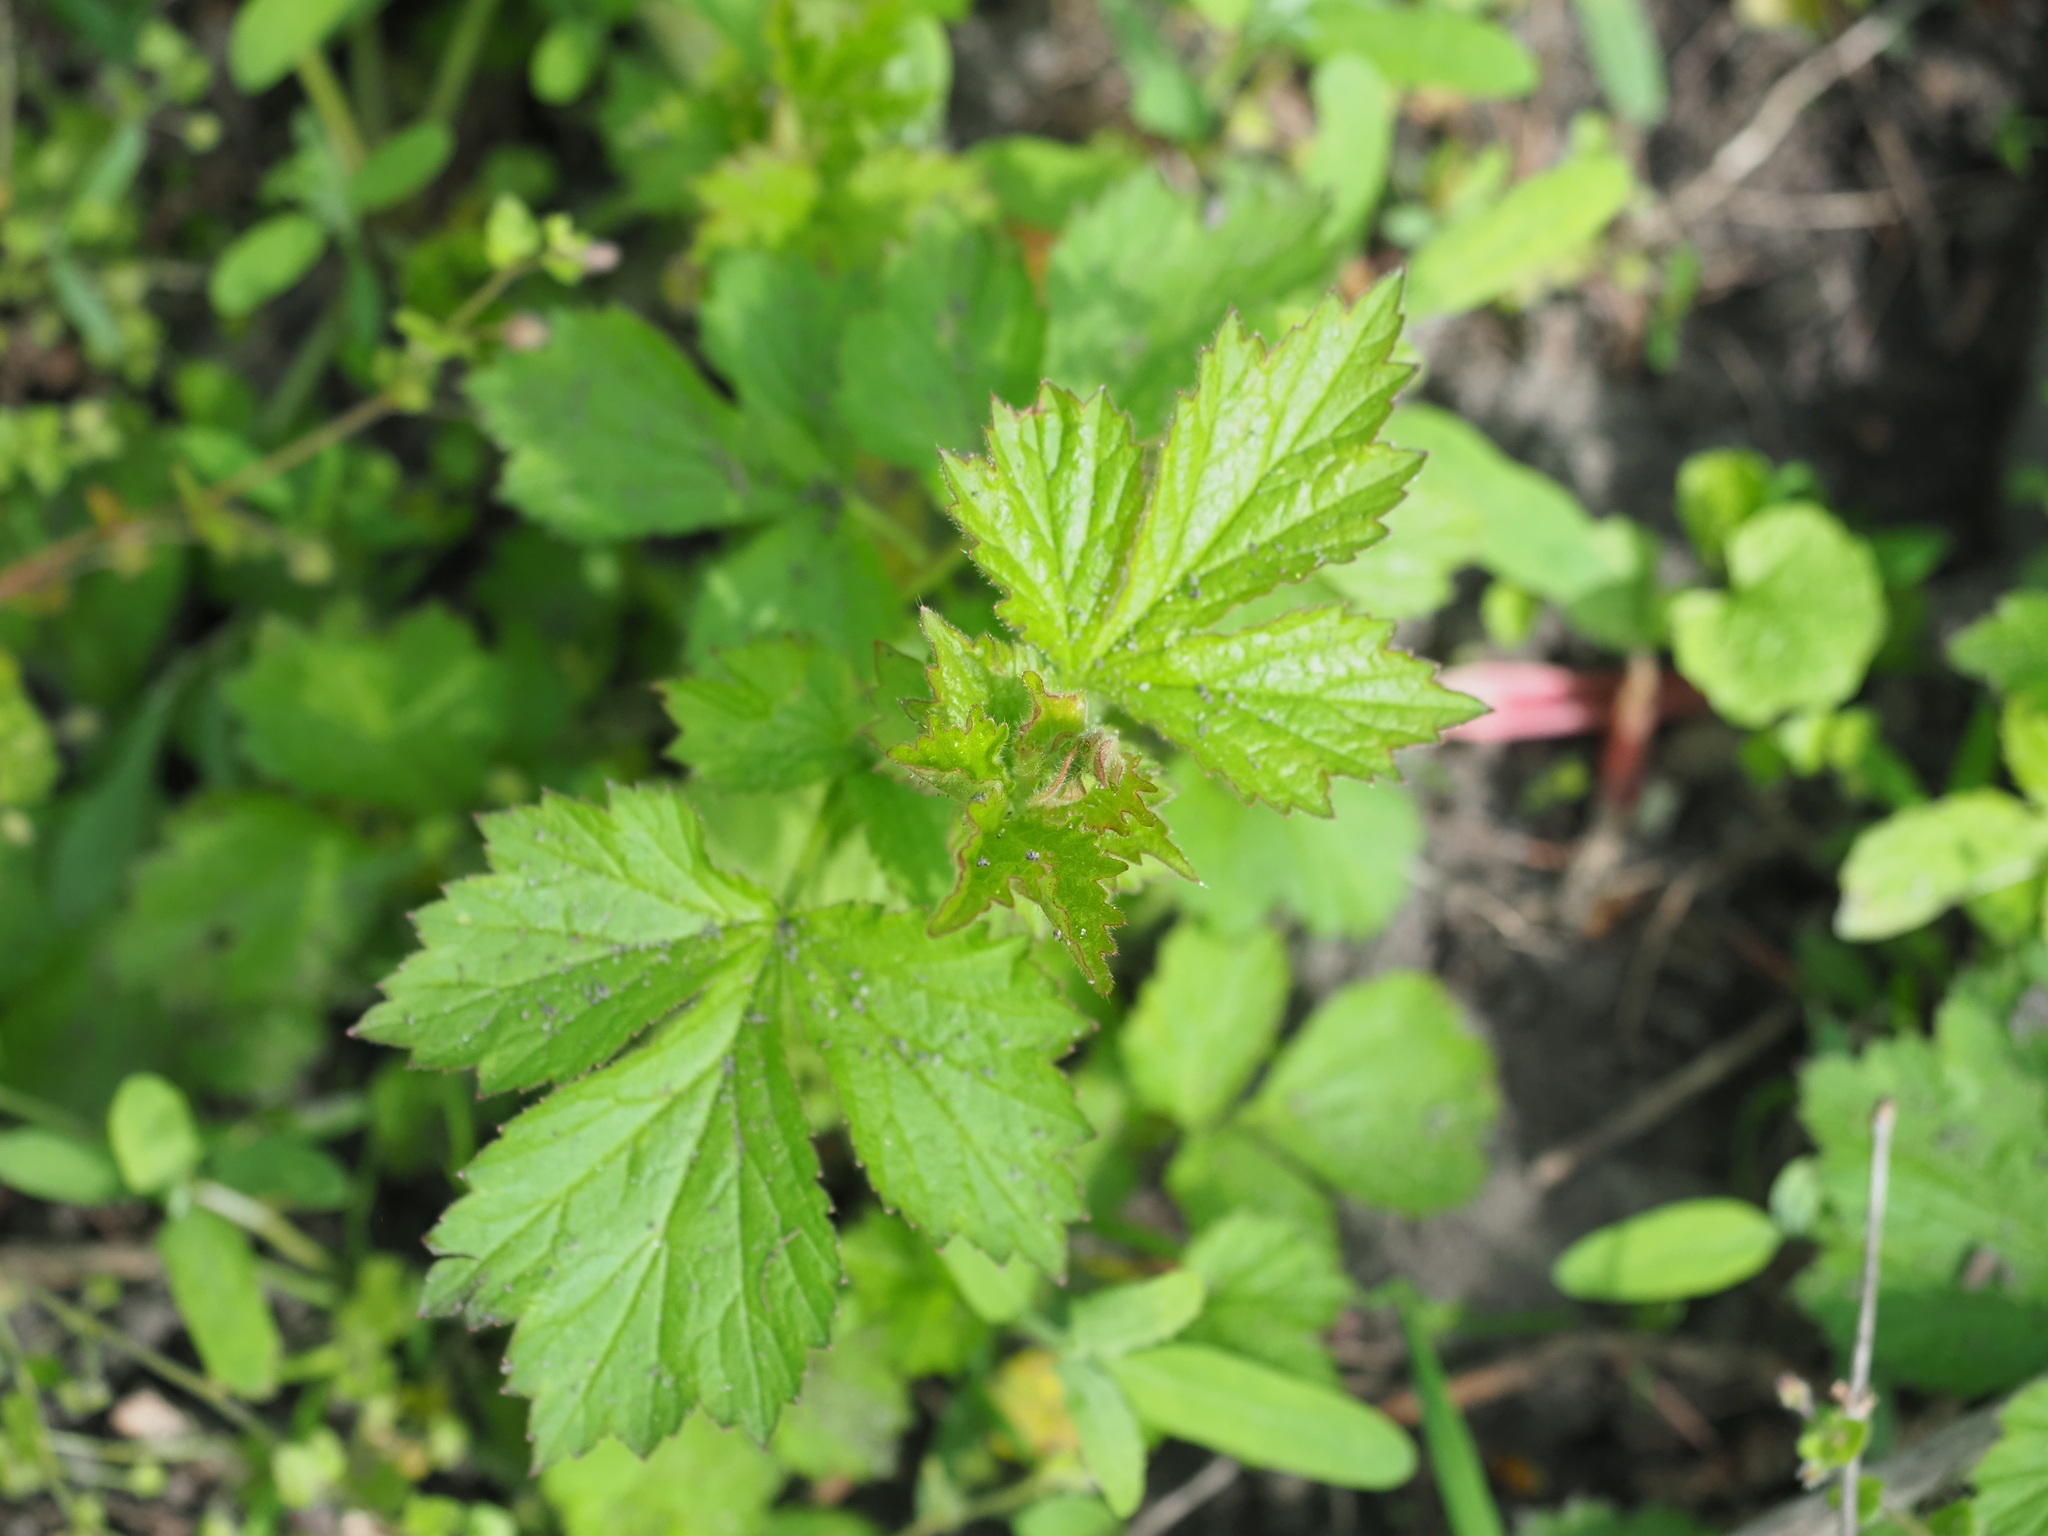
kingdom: Plantae
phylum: Tracheophyta
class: Magnoliopsida
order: Rosales
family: Rosaceae
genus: Geum
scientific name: Geum urbanum
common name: Wood avens
